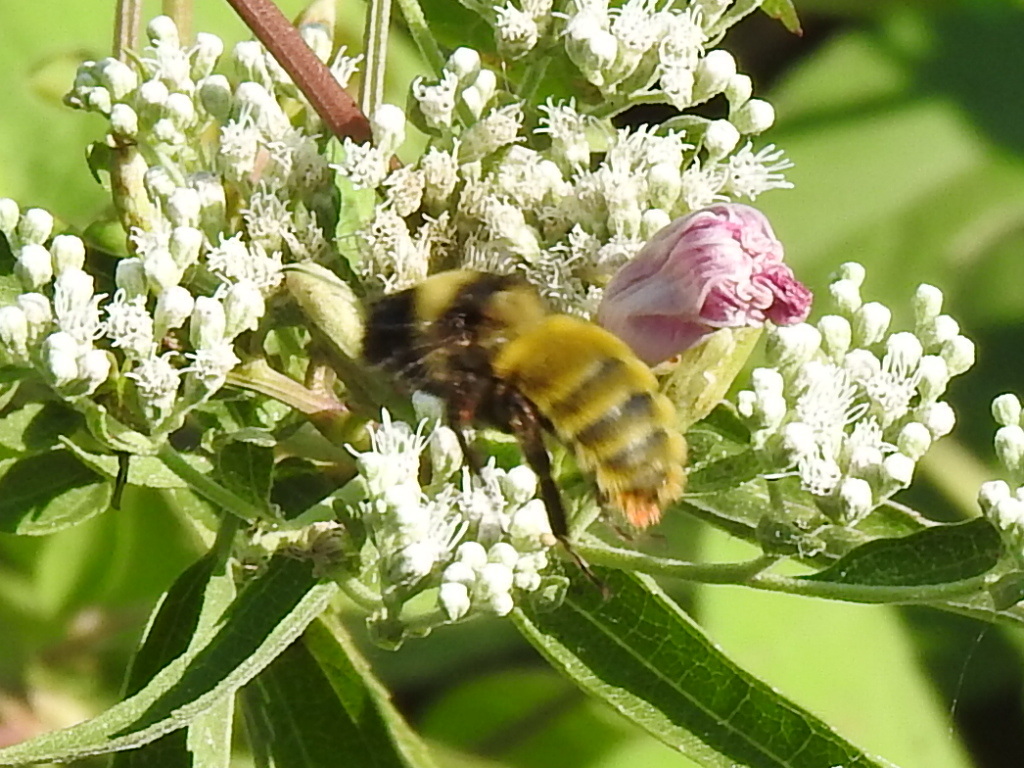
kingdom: Animalia
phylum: Arthropoda
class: Insecta
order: Hymenoptera
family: Apidae
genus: Bombus
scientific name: Bombus pensylvanicus
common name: Bumble bee
